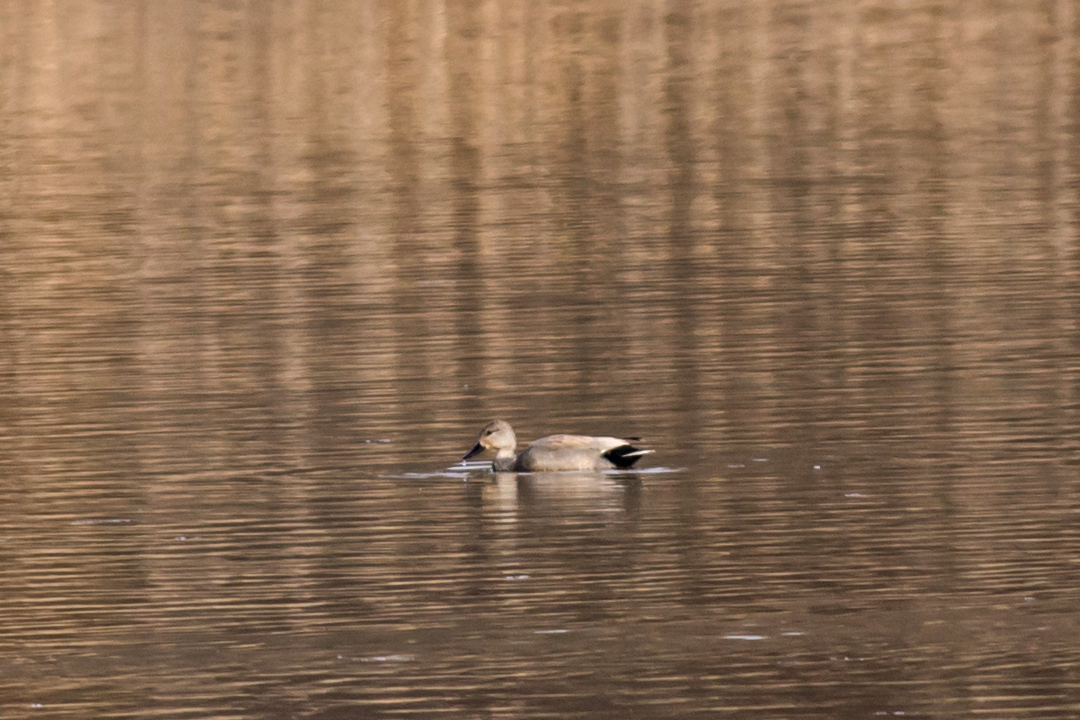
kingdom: Animalia
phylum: Chordata
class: Aves
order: Anseriformes
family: Anatidae
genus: Mareca
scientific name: Mareca strepera
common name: Gadwall
